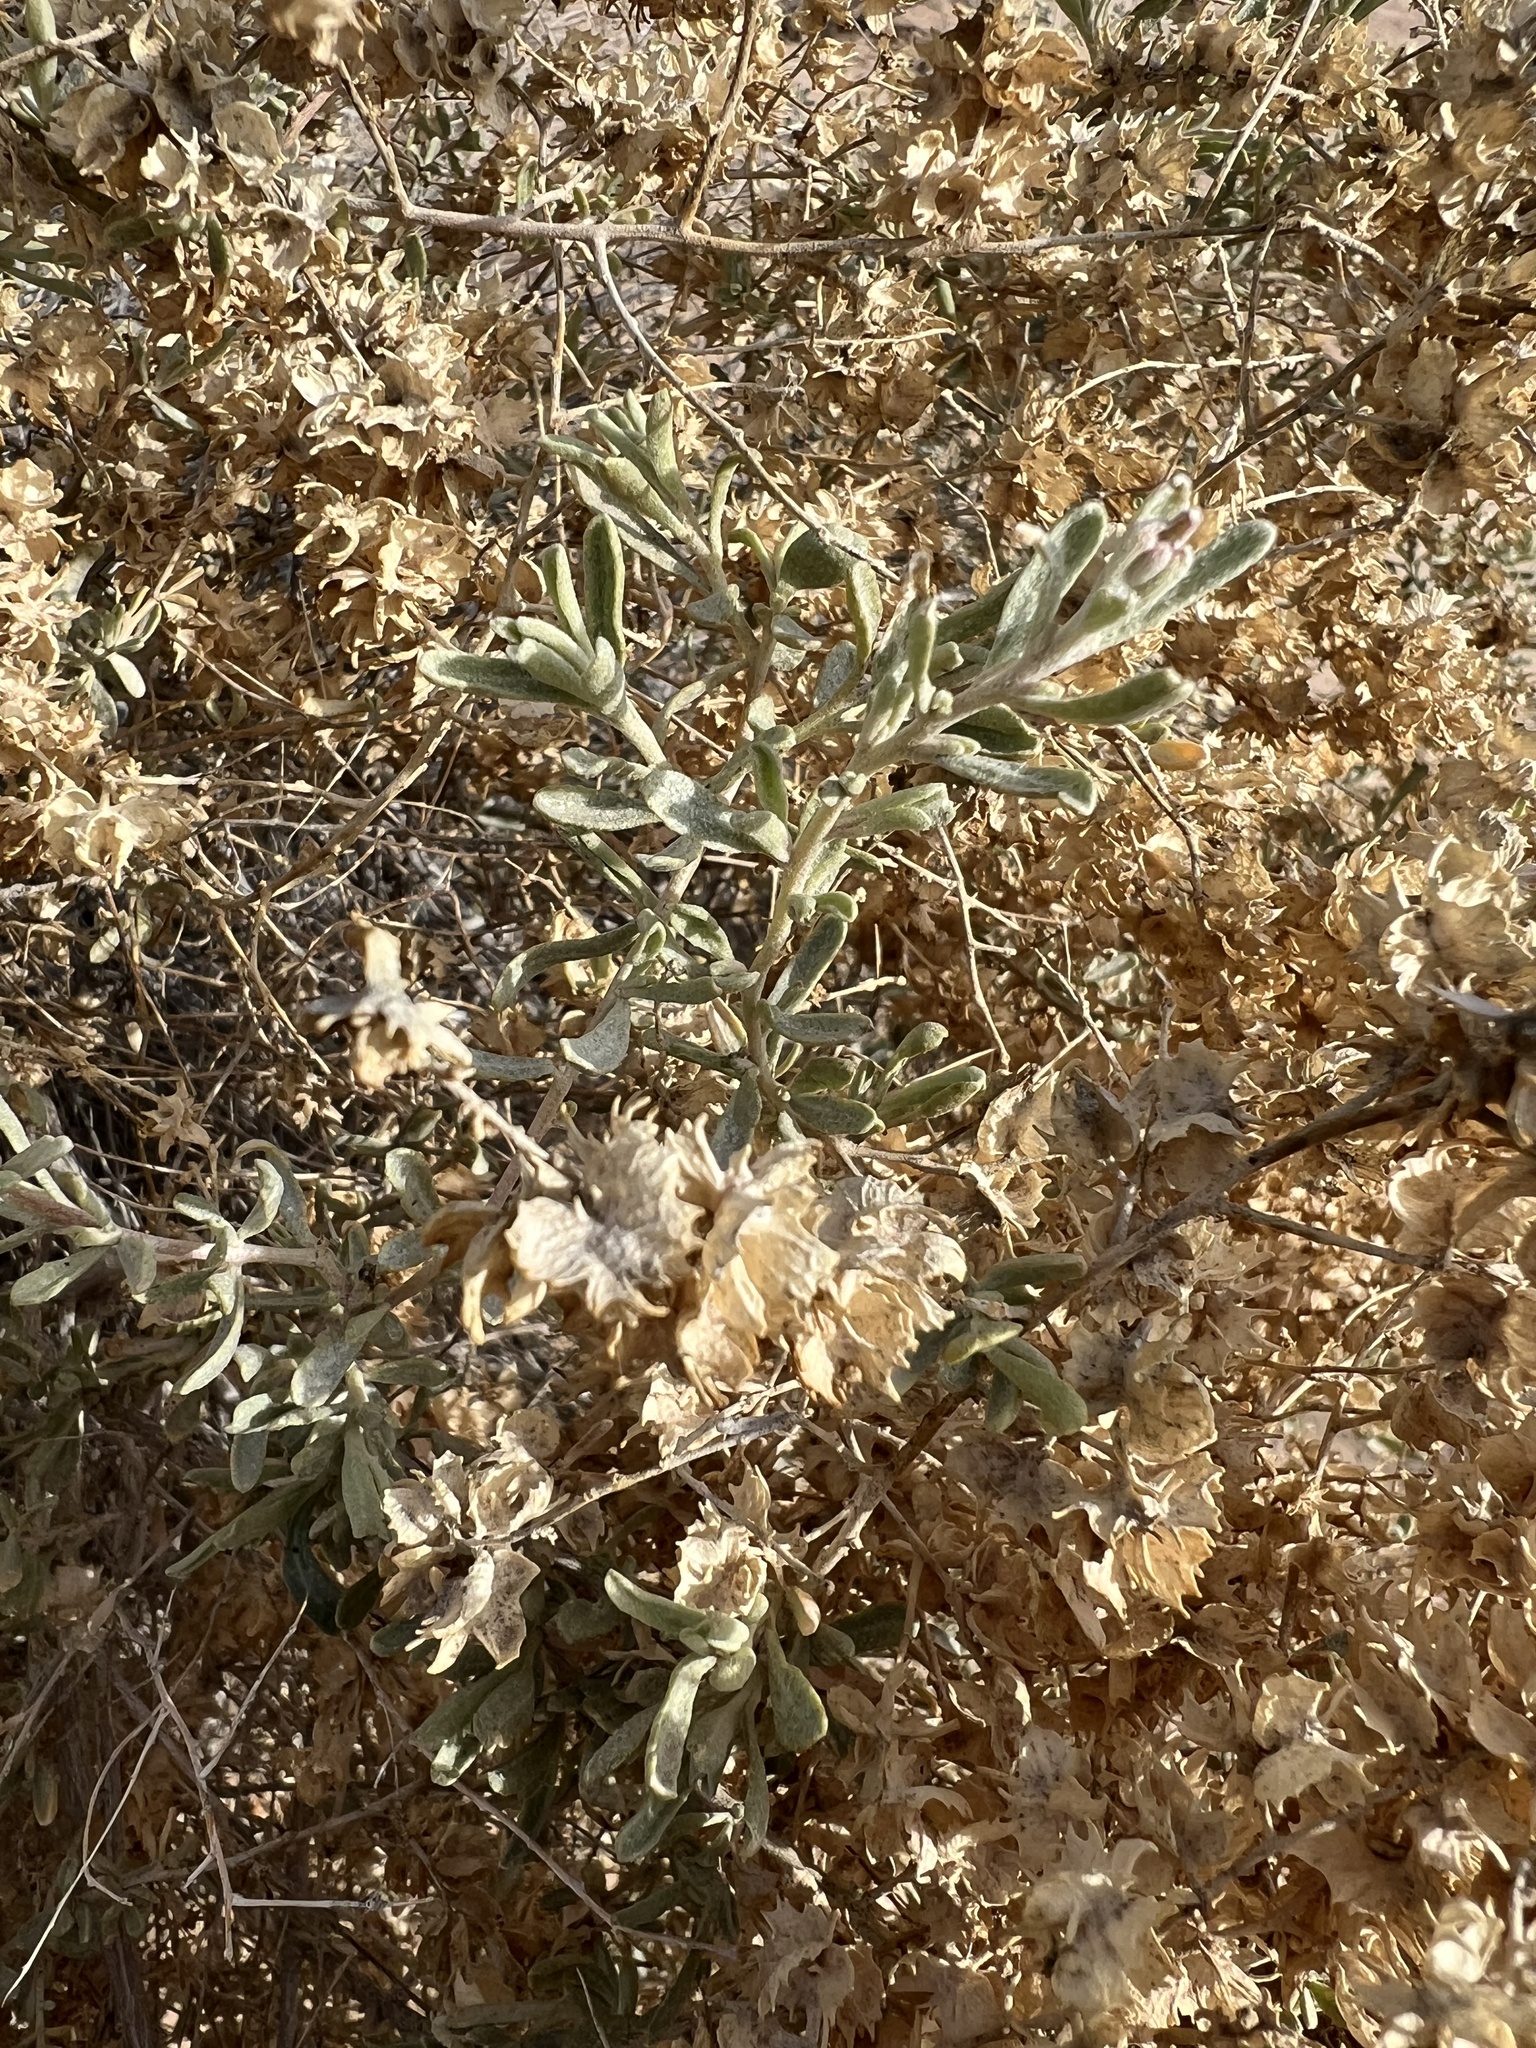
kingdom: Plantae
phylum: Tracheophyta
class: Magnoliopsida
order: Caryophyllales
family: Amaranthaceae
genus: Atriplex
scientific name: Atriplex canescens
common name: Four-wing saltbush
